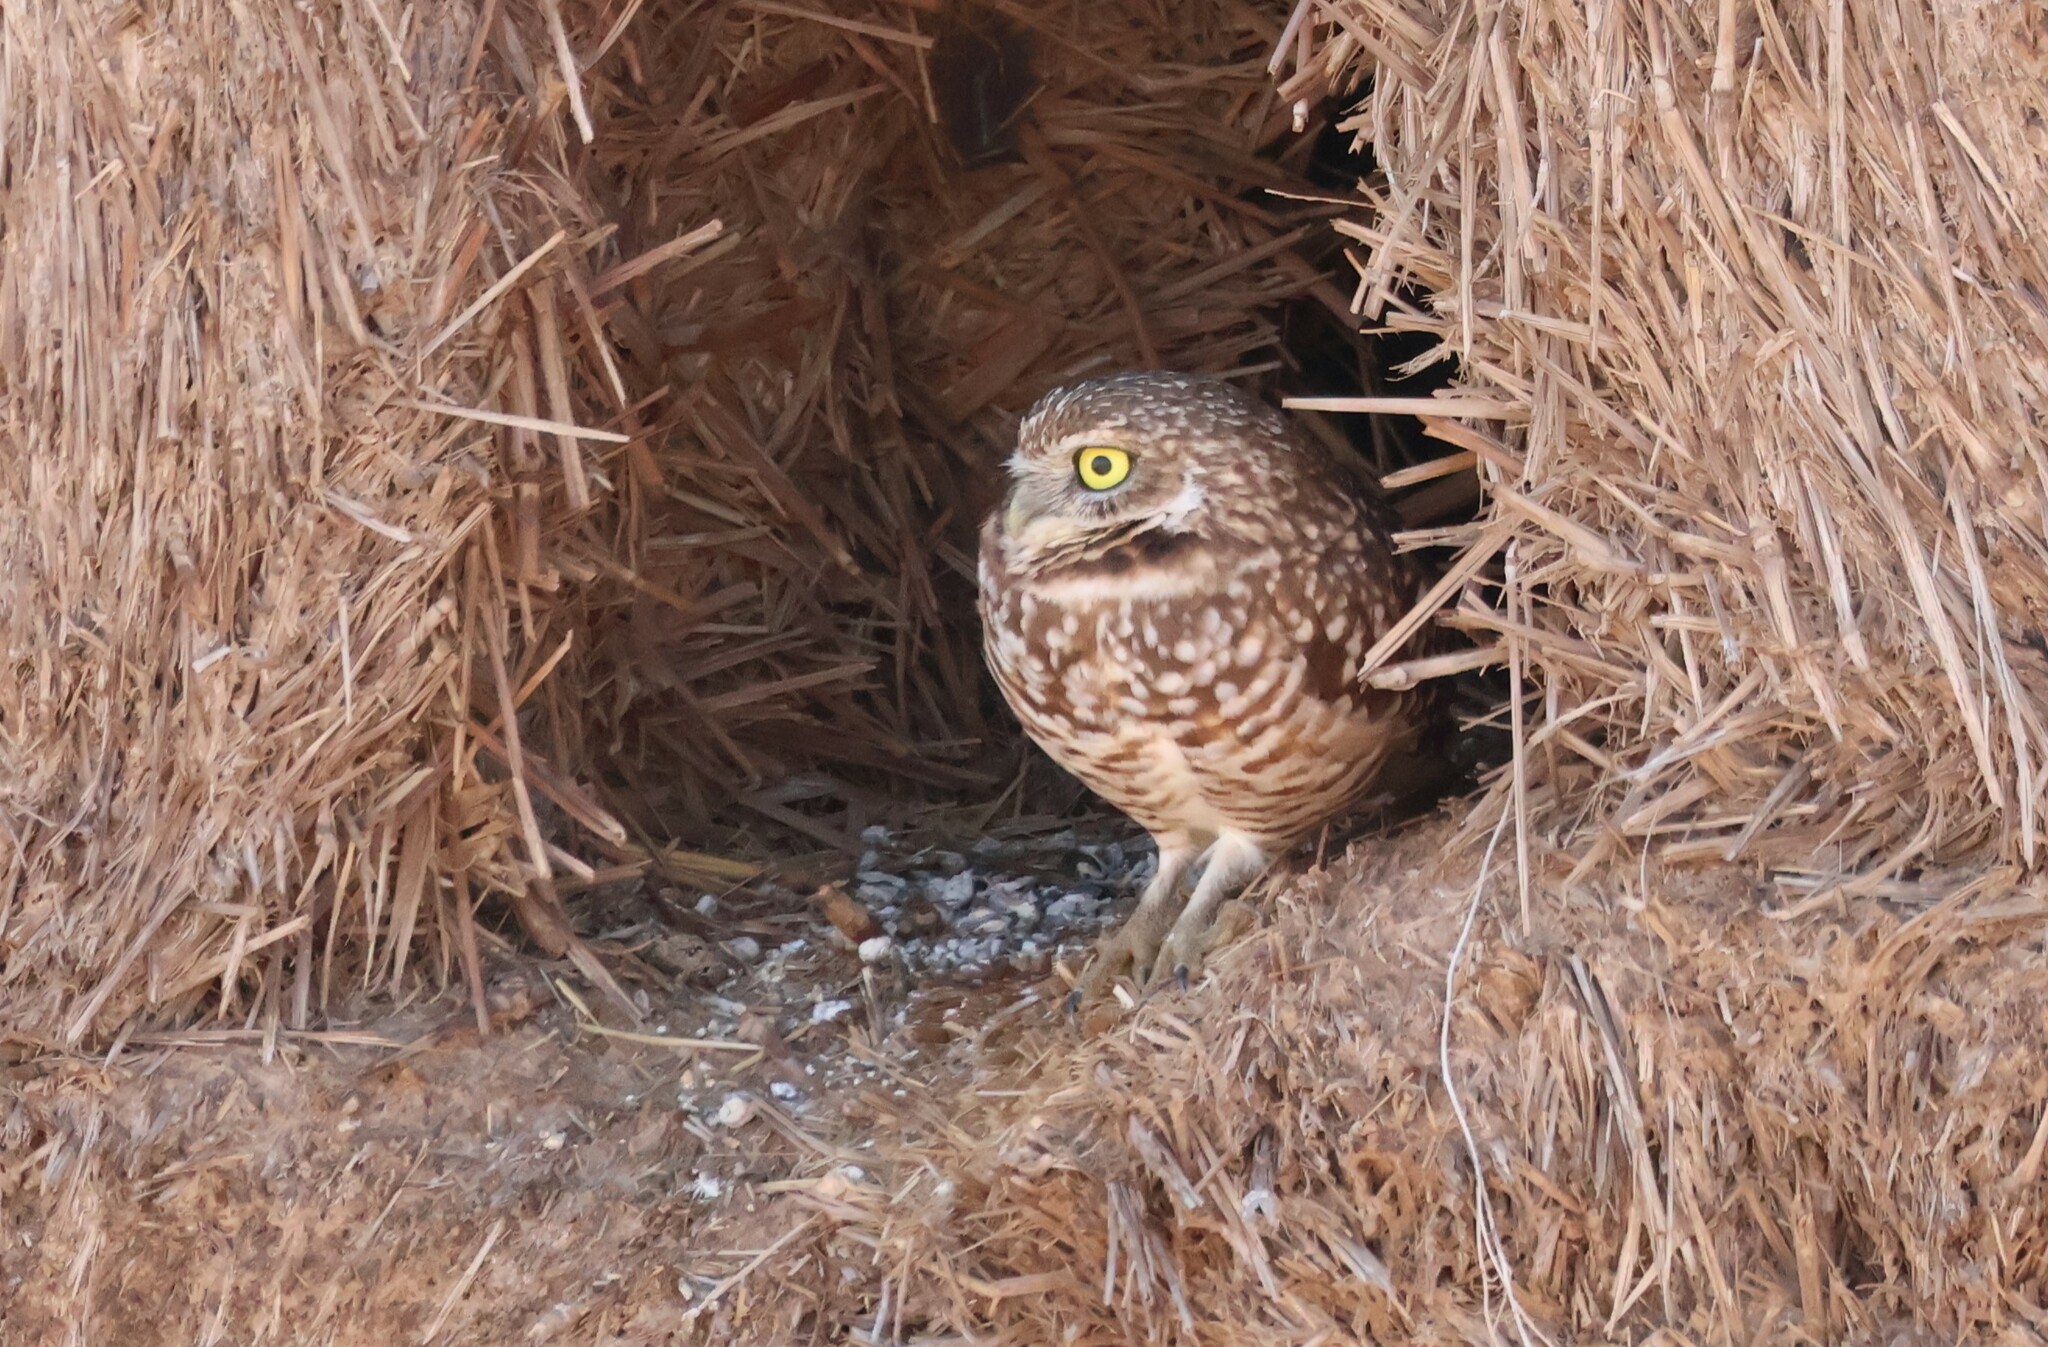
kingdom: Animalia
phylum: Chordata
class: Aves
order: Strigiformes
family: Strigidae
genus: Athene
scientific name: Athene cunicularia
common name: Burrowing owl
